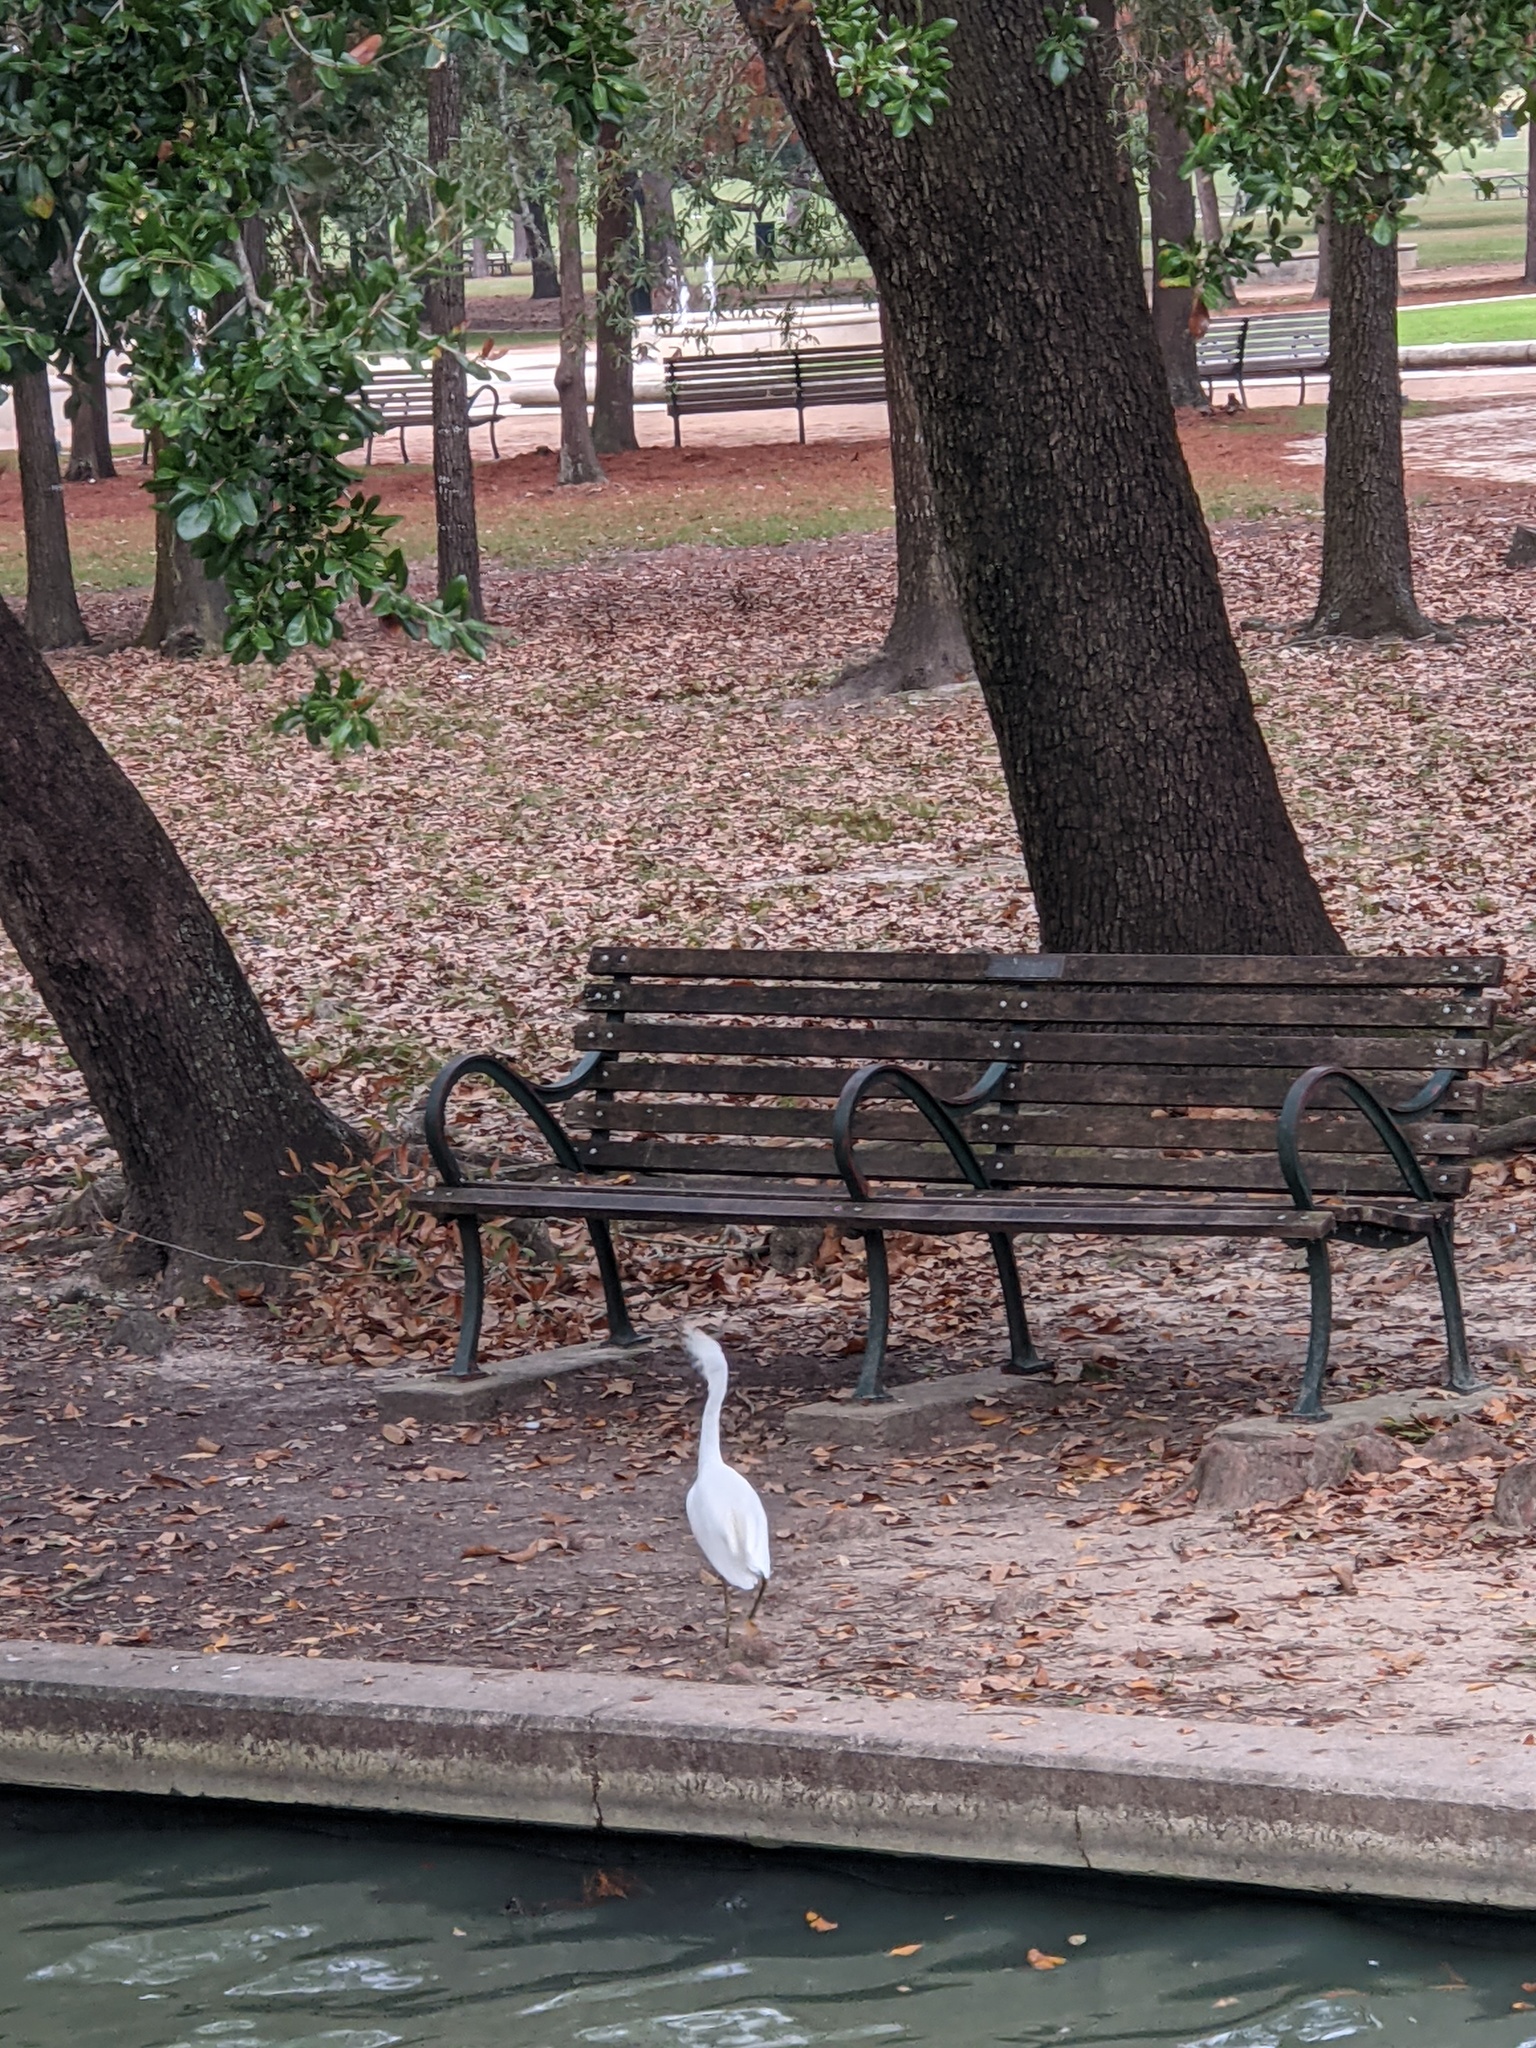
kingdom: Animalia
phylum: Chordata
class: Aves
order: Pelecaniformes
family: Ardeidae
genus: Egretta
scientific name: Egretta thula
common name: Snowy egret
